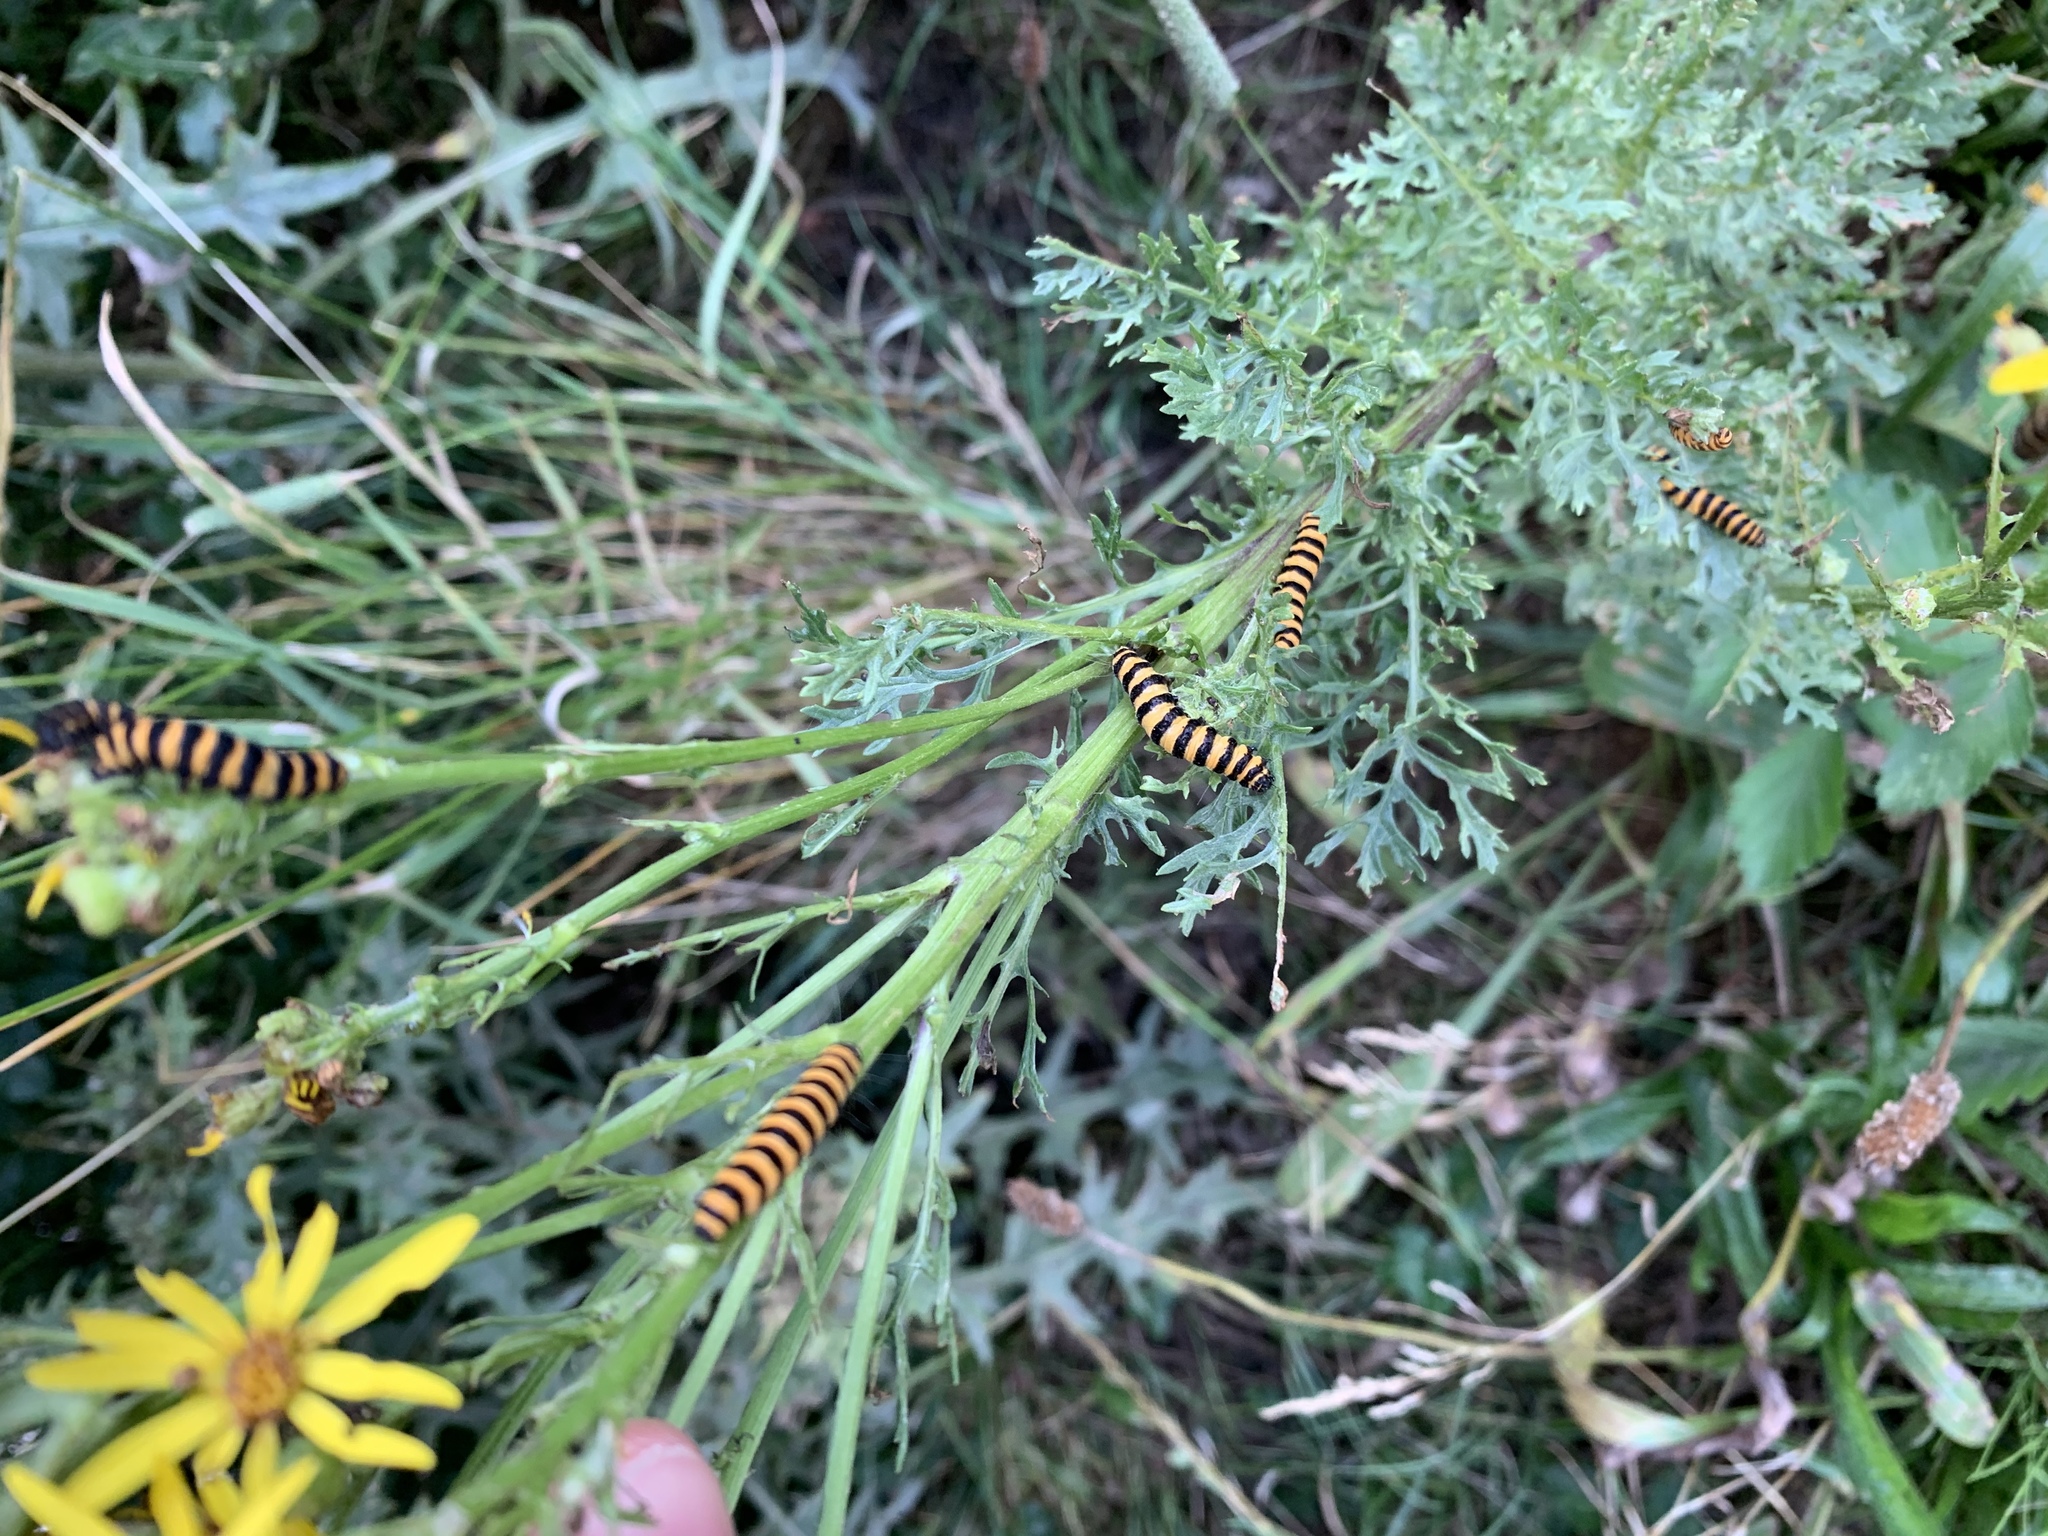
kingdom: Animalia
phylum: Arthropoda
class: Insecta
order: Lepidoptera
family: Erebidae
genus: Tyria
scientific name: Tyria jacobaeae
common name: Cinnabar
